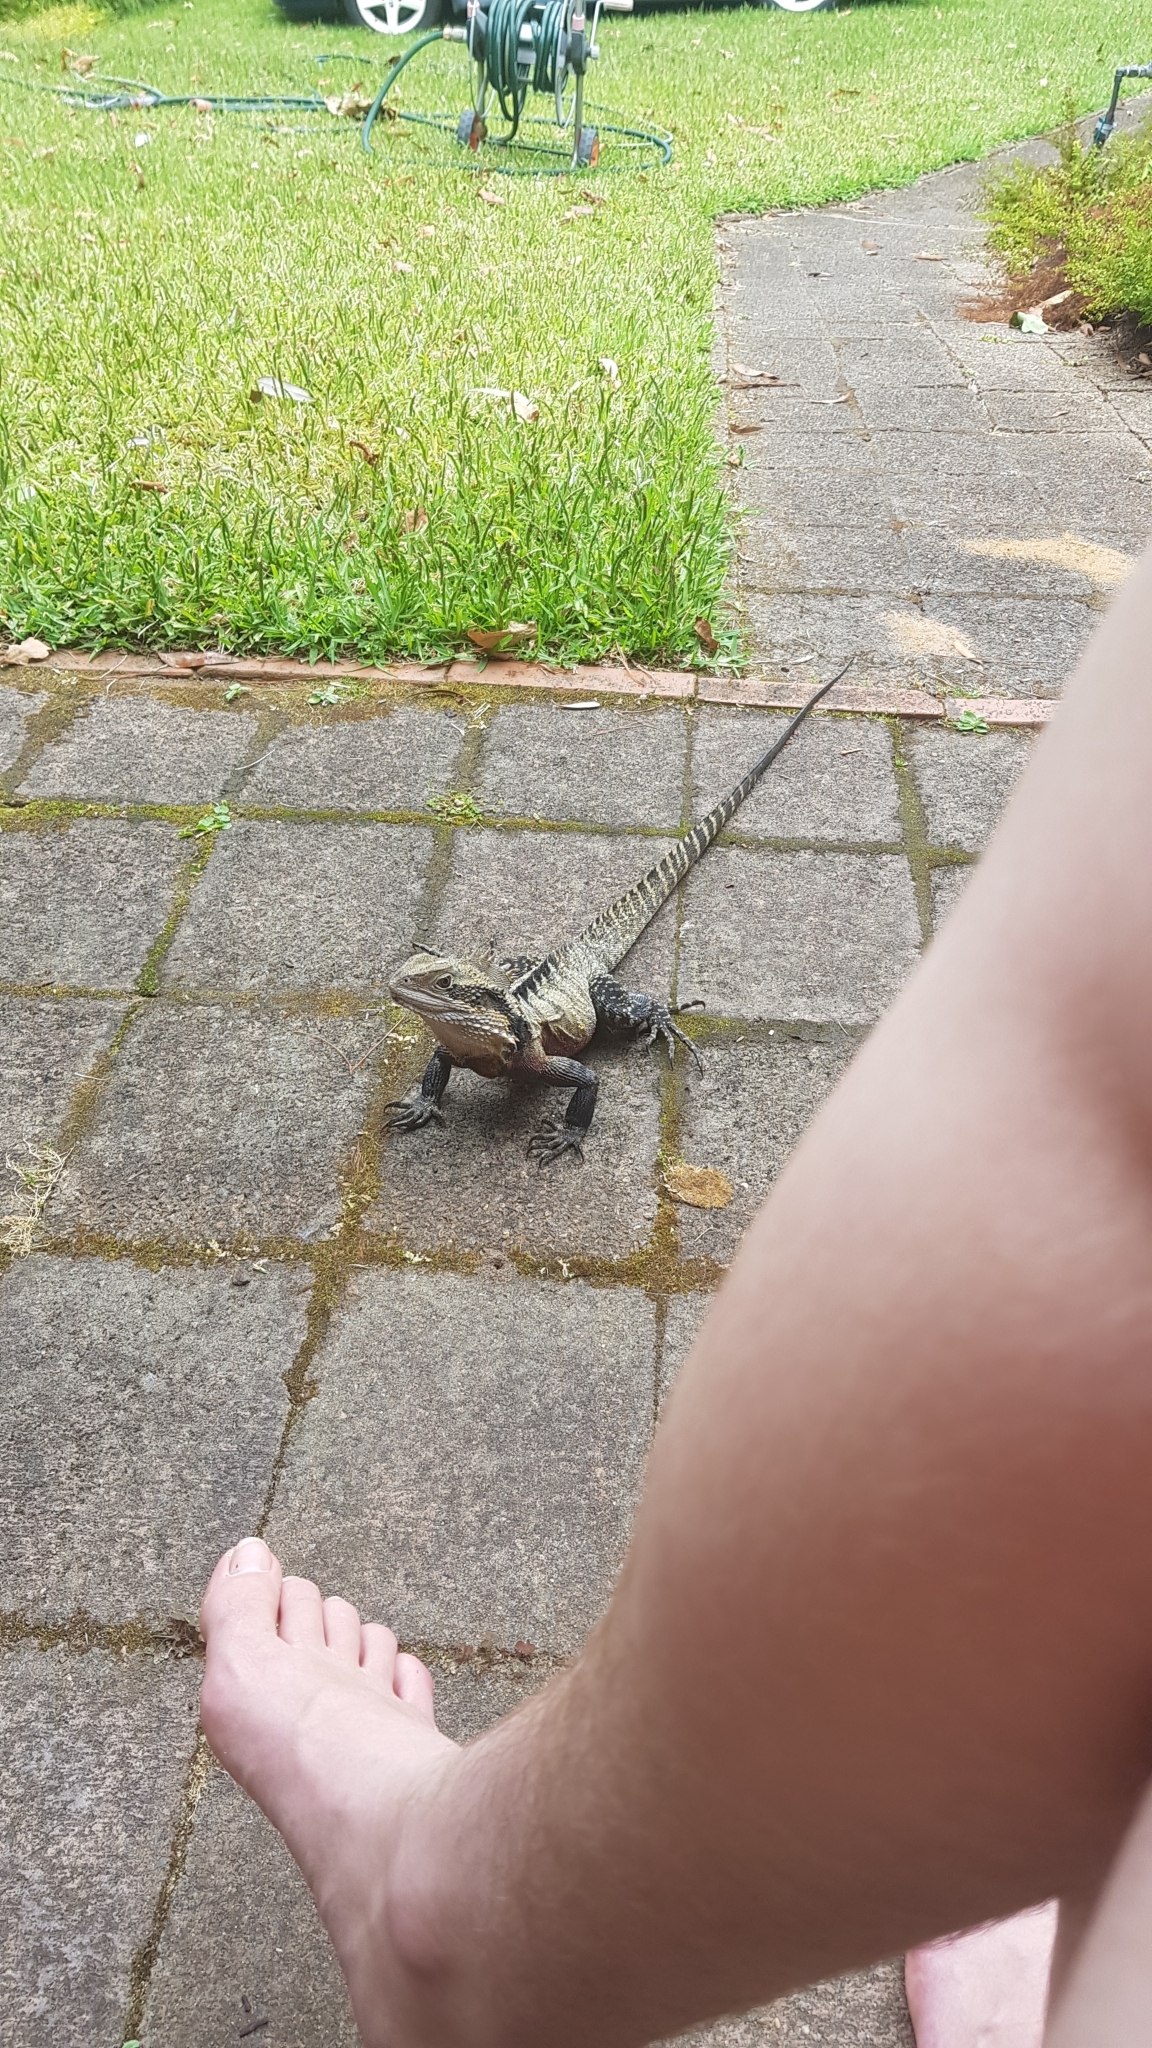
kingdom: Animalia
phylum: Chordata
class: Squamata
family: Agamidae
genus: Intellagama
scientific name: Intellagama lesueurii
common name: Eastern water dragon
